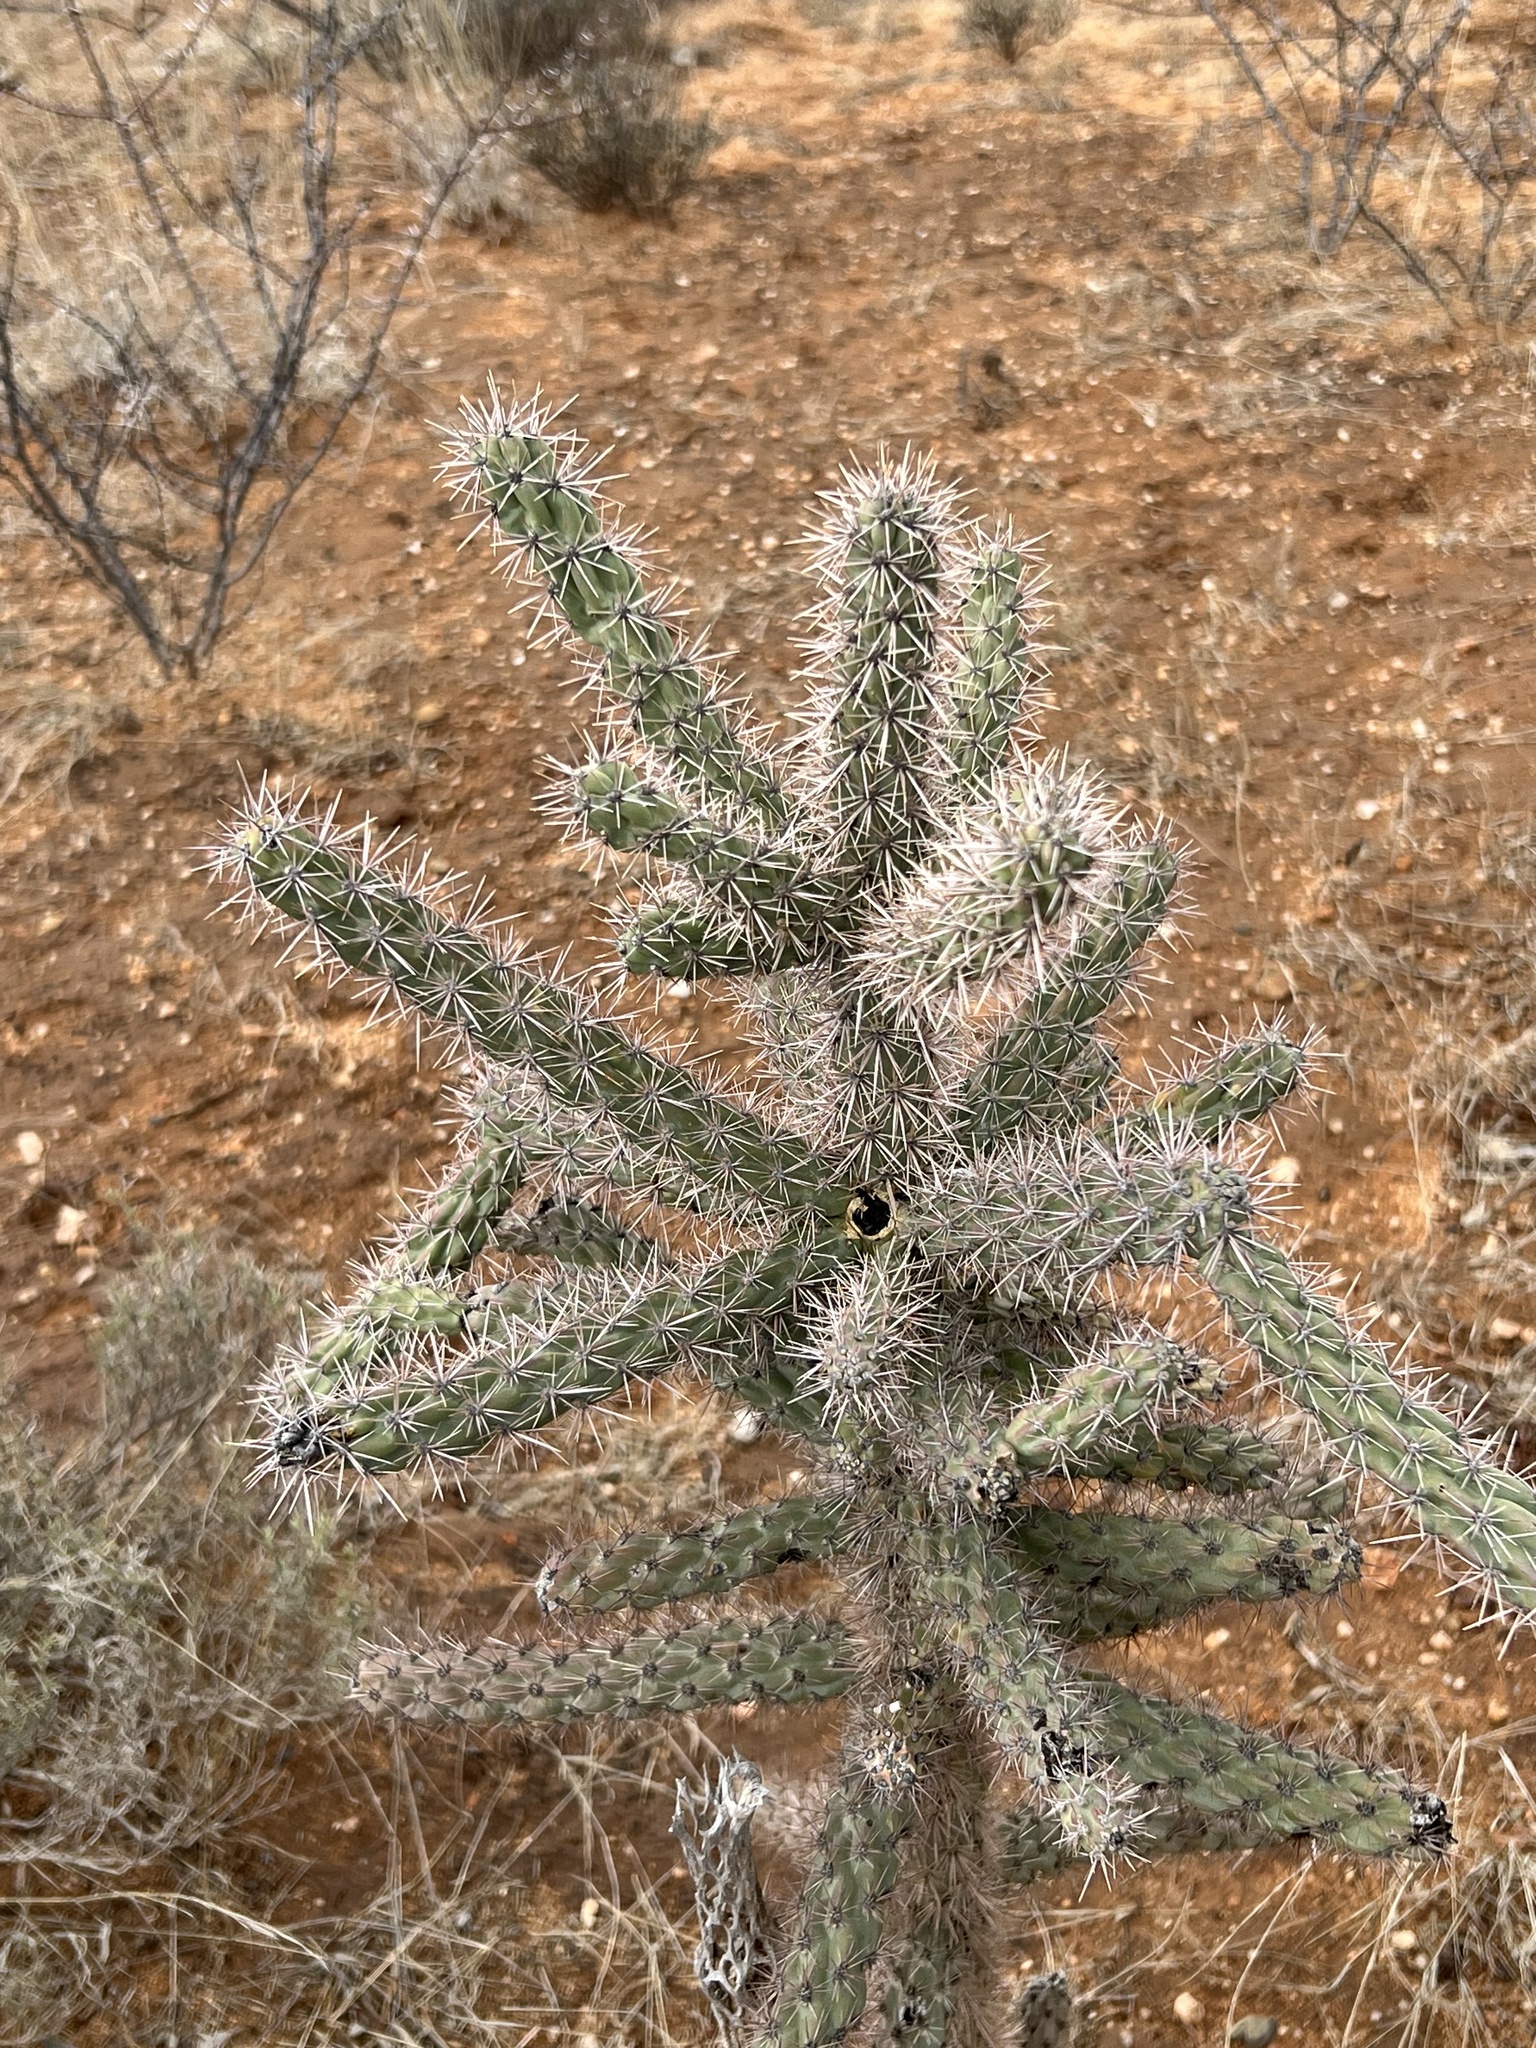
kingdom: Plantae
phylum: Tracheophyta
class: Magnoliopsida
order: Caryophyllales
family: Cactaceae
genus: Cylindropuntia
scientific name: Cylindropuntia imbricata
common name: Candelabrum cactus
